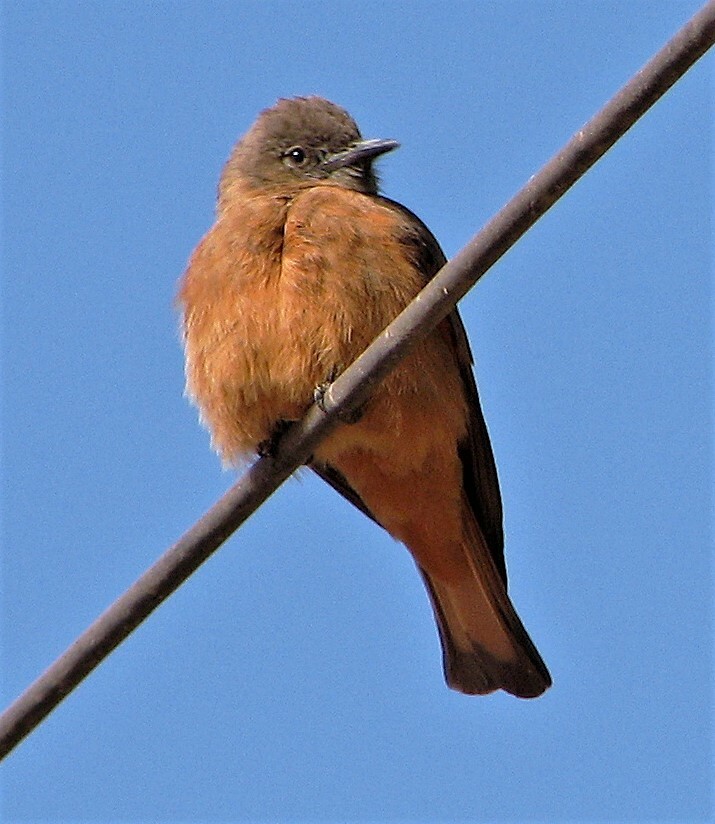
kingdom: Animalia
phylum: Chordata
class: Aves
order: Passeriformes
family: Tyrannidae
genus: Hirundinea
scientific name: Hirundinea ferruginea
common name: Cliff flycatcher
